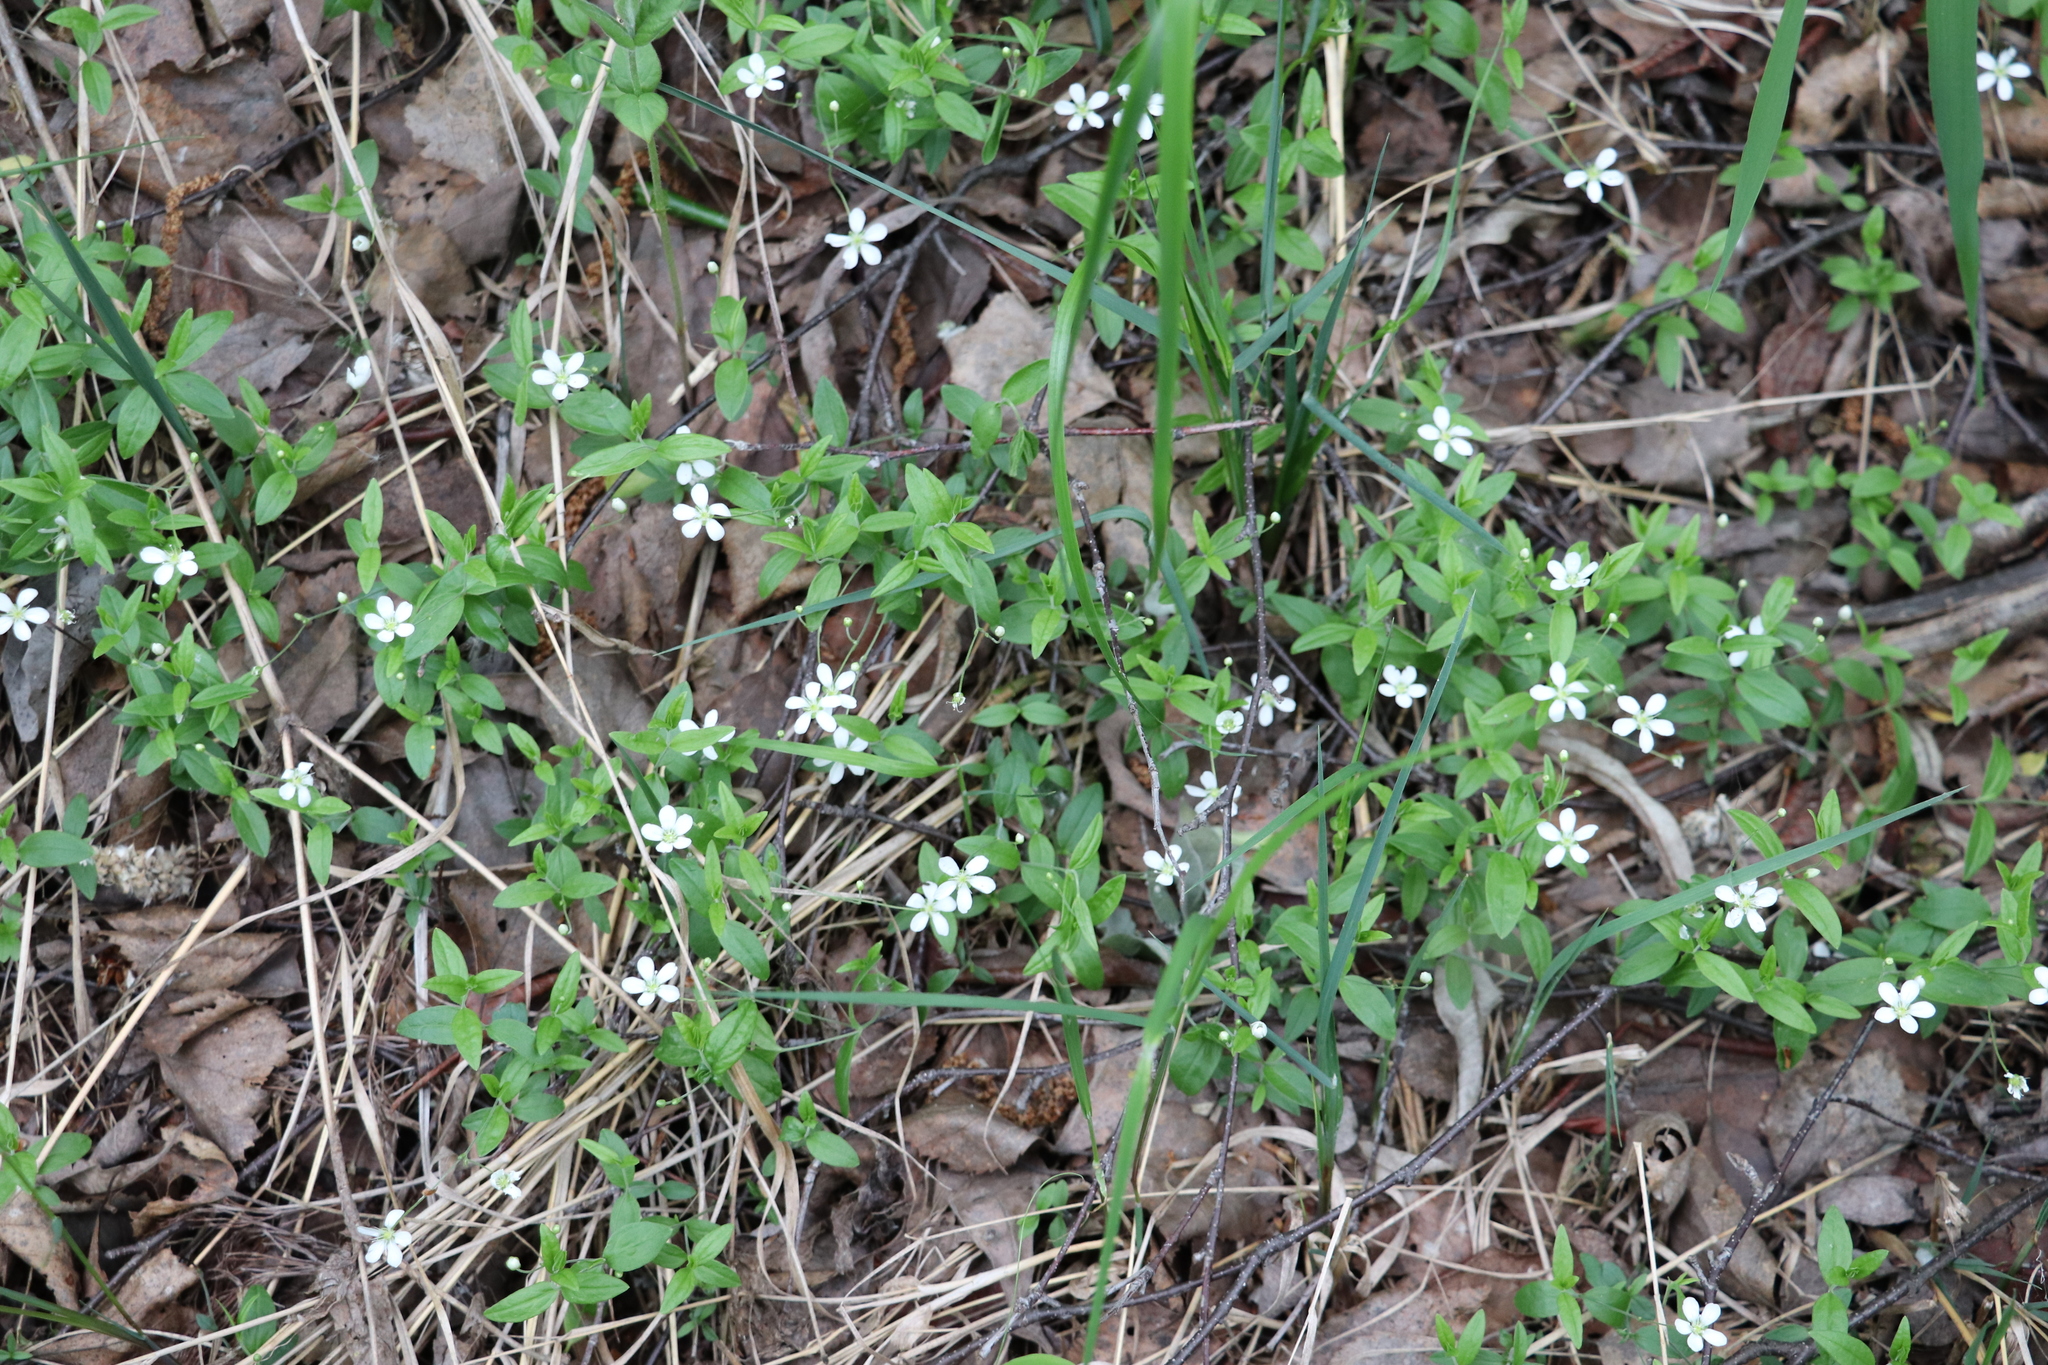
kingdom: Plantae
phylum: Tracheophyta
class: Magnoliopsida
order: Caryophyllales
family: Caryophyllaceae
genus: Moehringia
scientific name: Moehringia lateriflora
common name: Blunt-leaved sandwort
